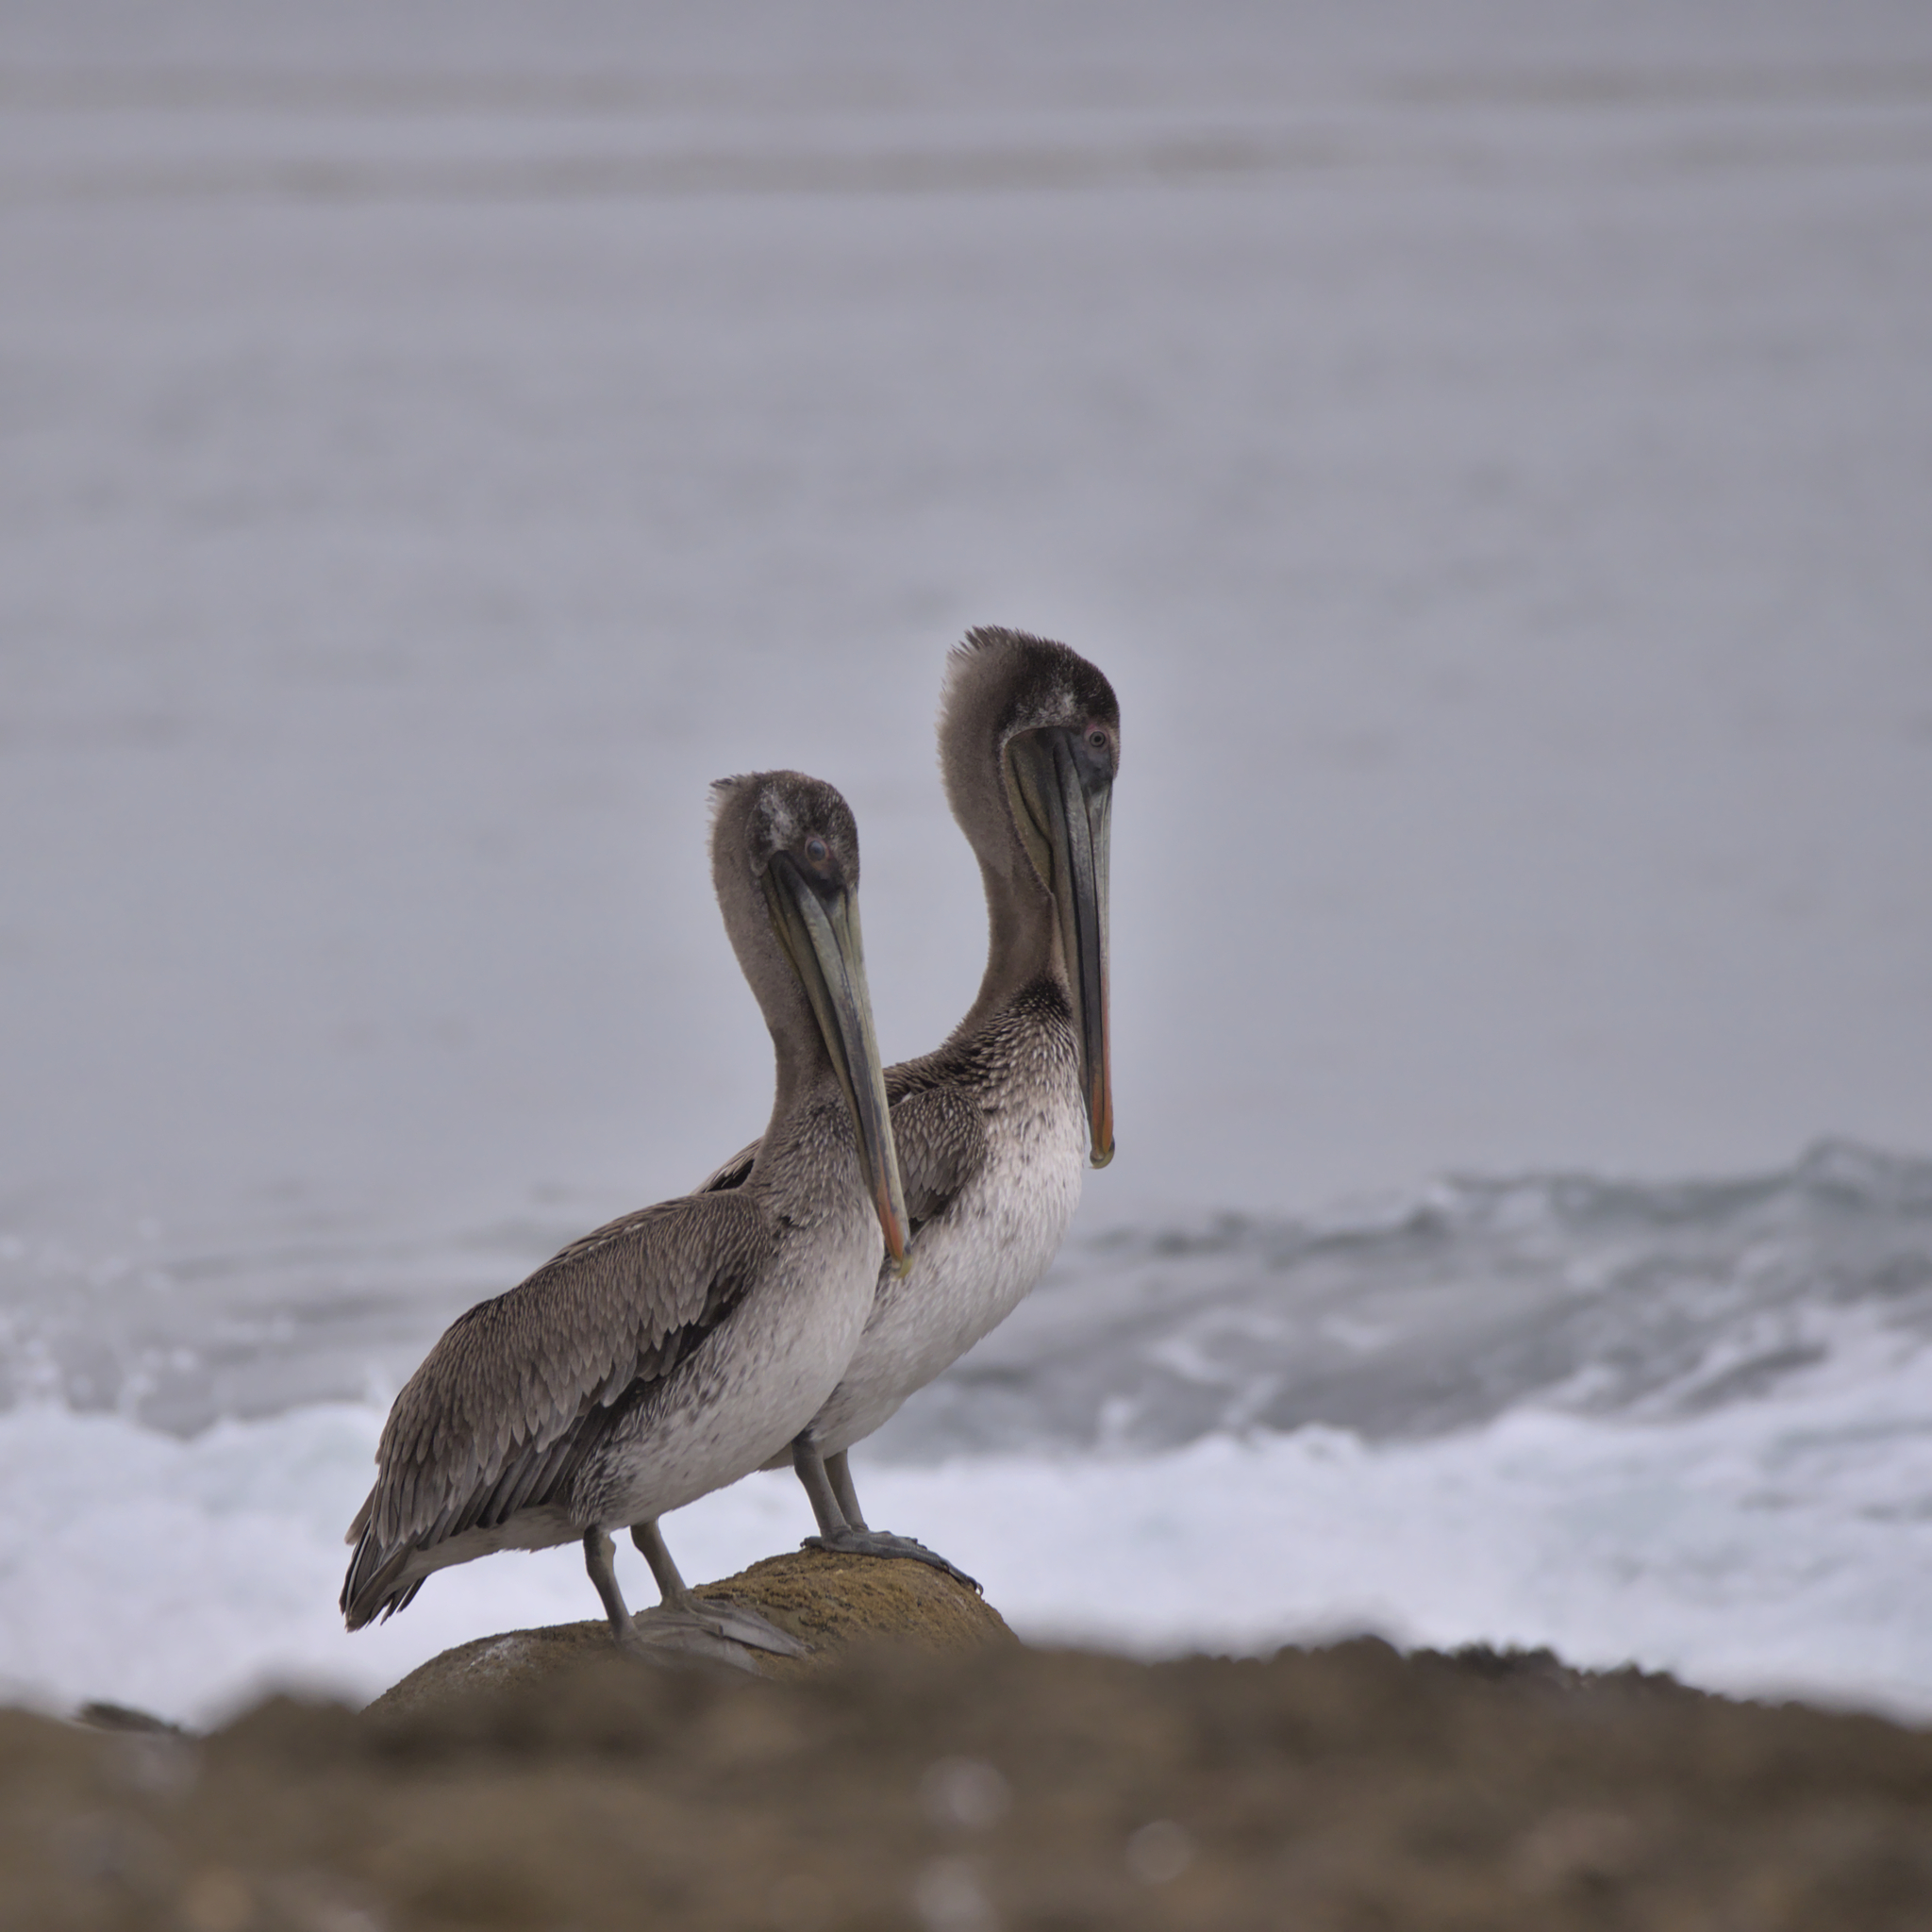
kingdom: Animalia
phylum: Chordata
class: Aves
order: Pelecaniformes
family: Pelecanidae
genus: Pelecanus
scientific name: Pelecanus occidentalis
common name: Brown pelican
